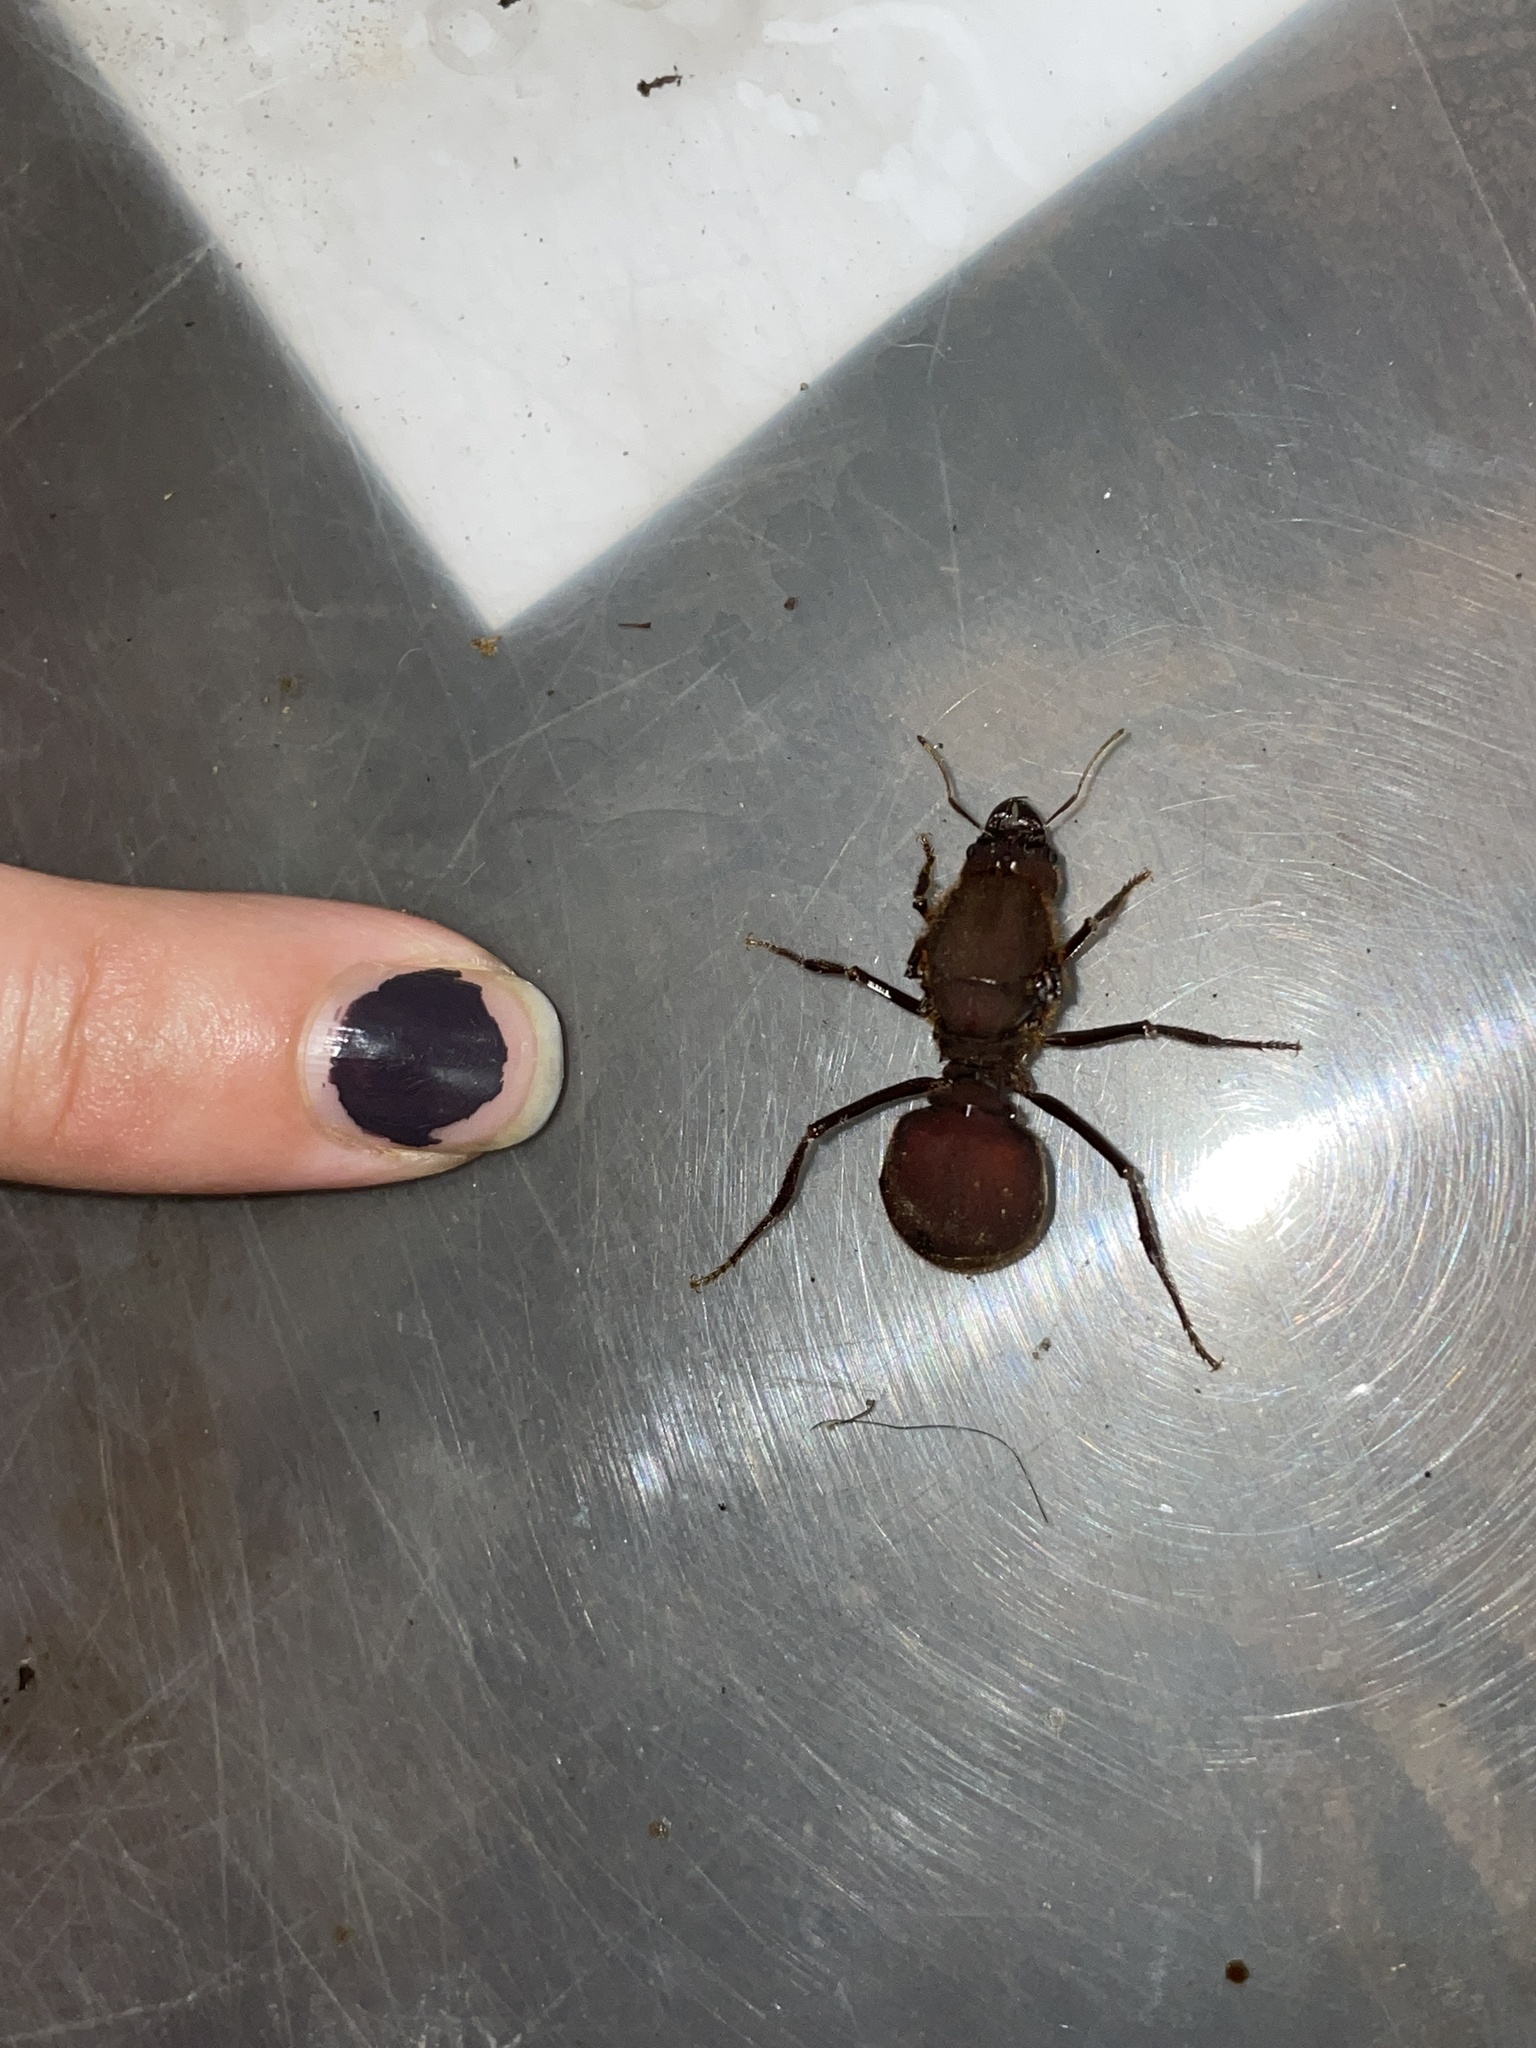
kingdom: Animalia
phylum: Arthropoda
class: Insecta
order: Hymenoptera
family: Formicidae
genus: Atta
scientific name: Atta cephalotes
